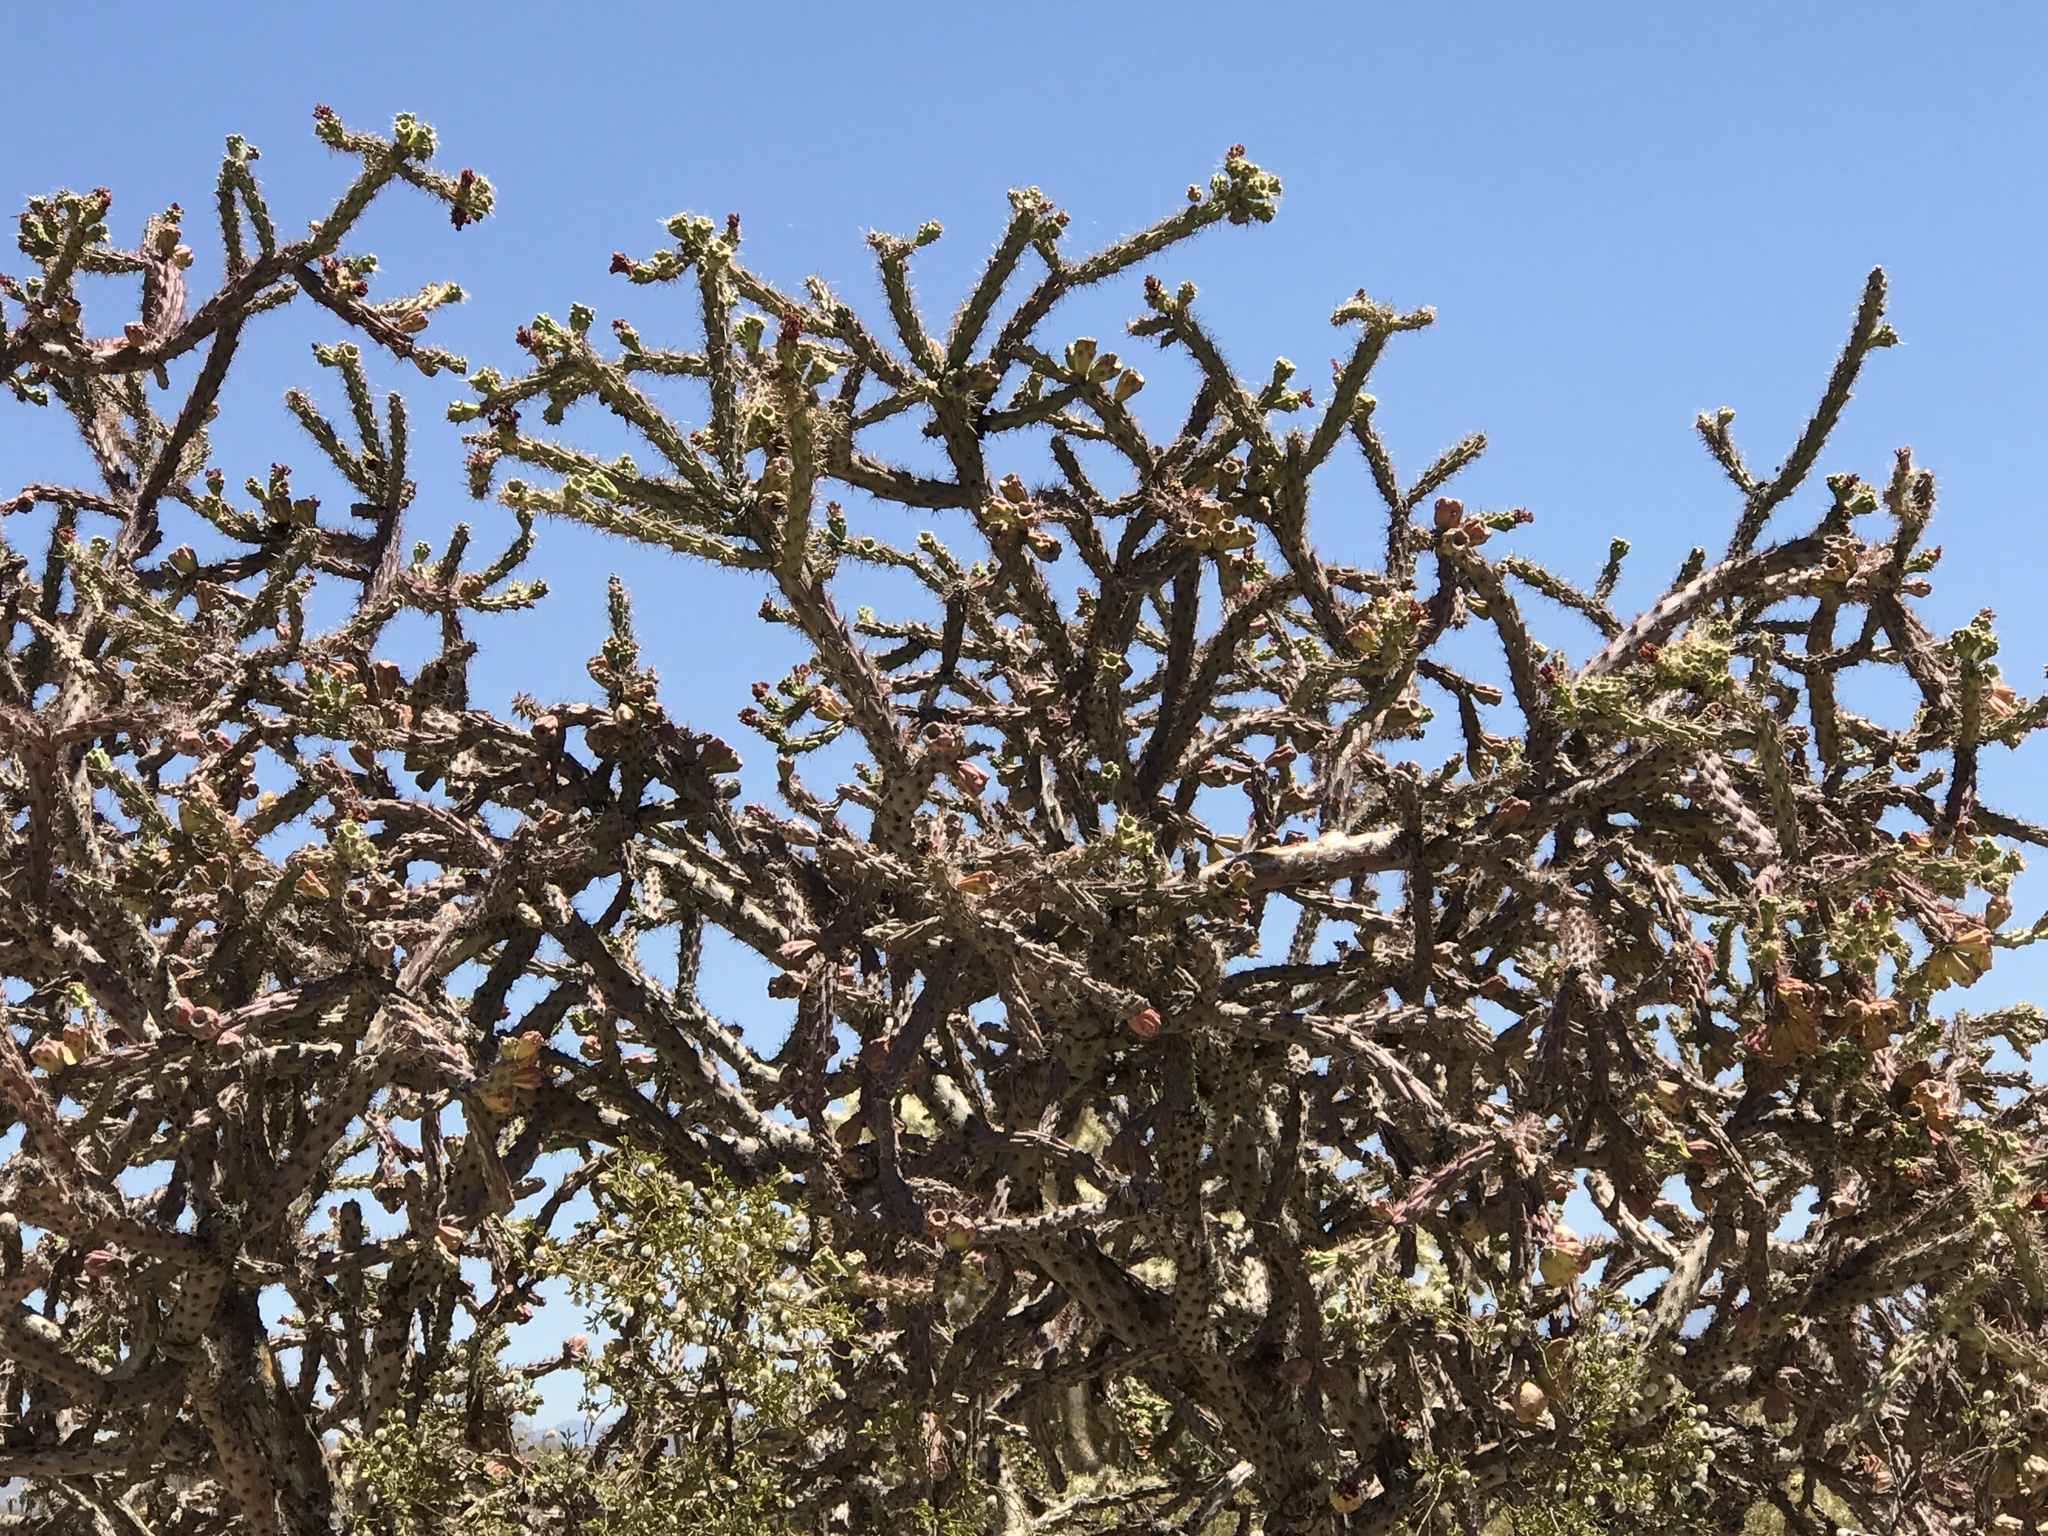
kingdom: Plantae
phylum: Tracheophyta
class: Magnoliopsida
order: Caryophyllales
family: Cactaceae
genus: Cylindropuntia
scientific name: Cylindropuntia thurberi
